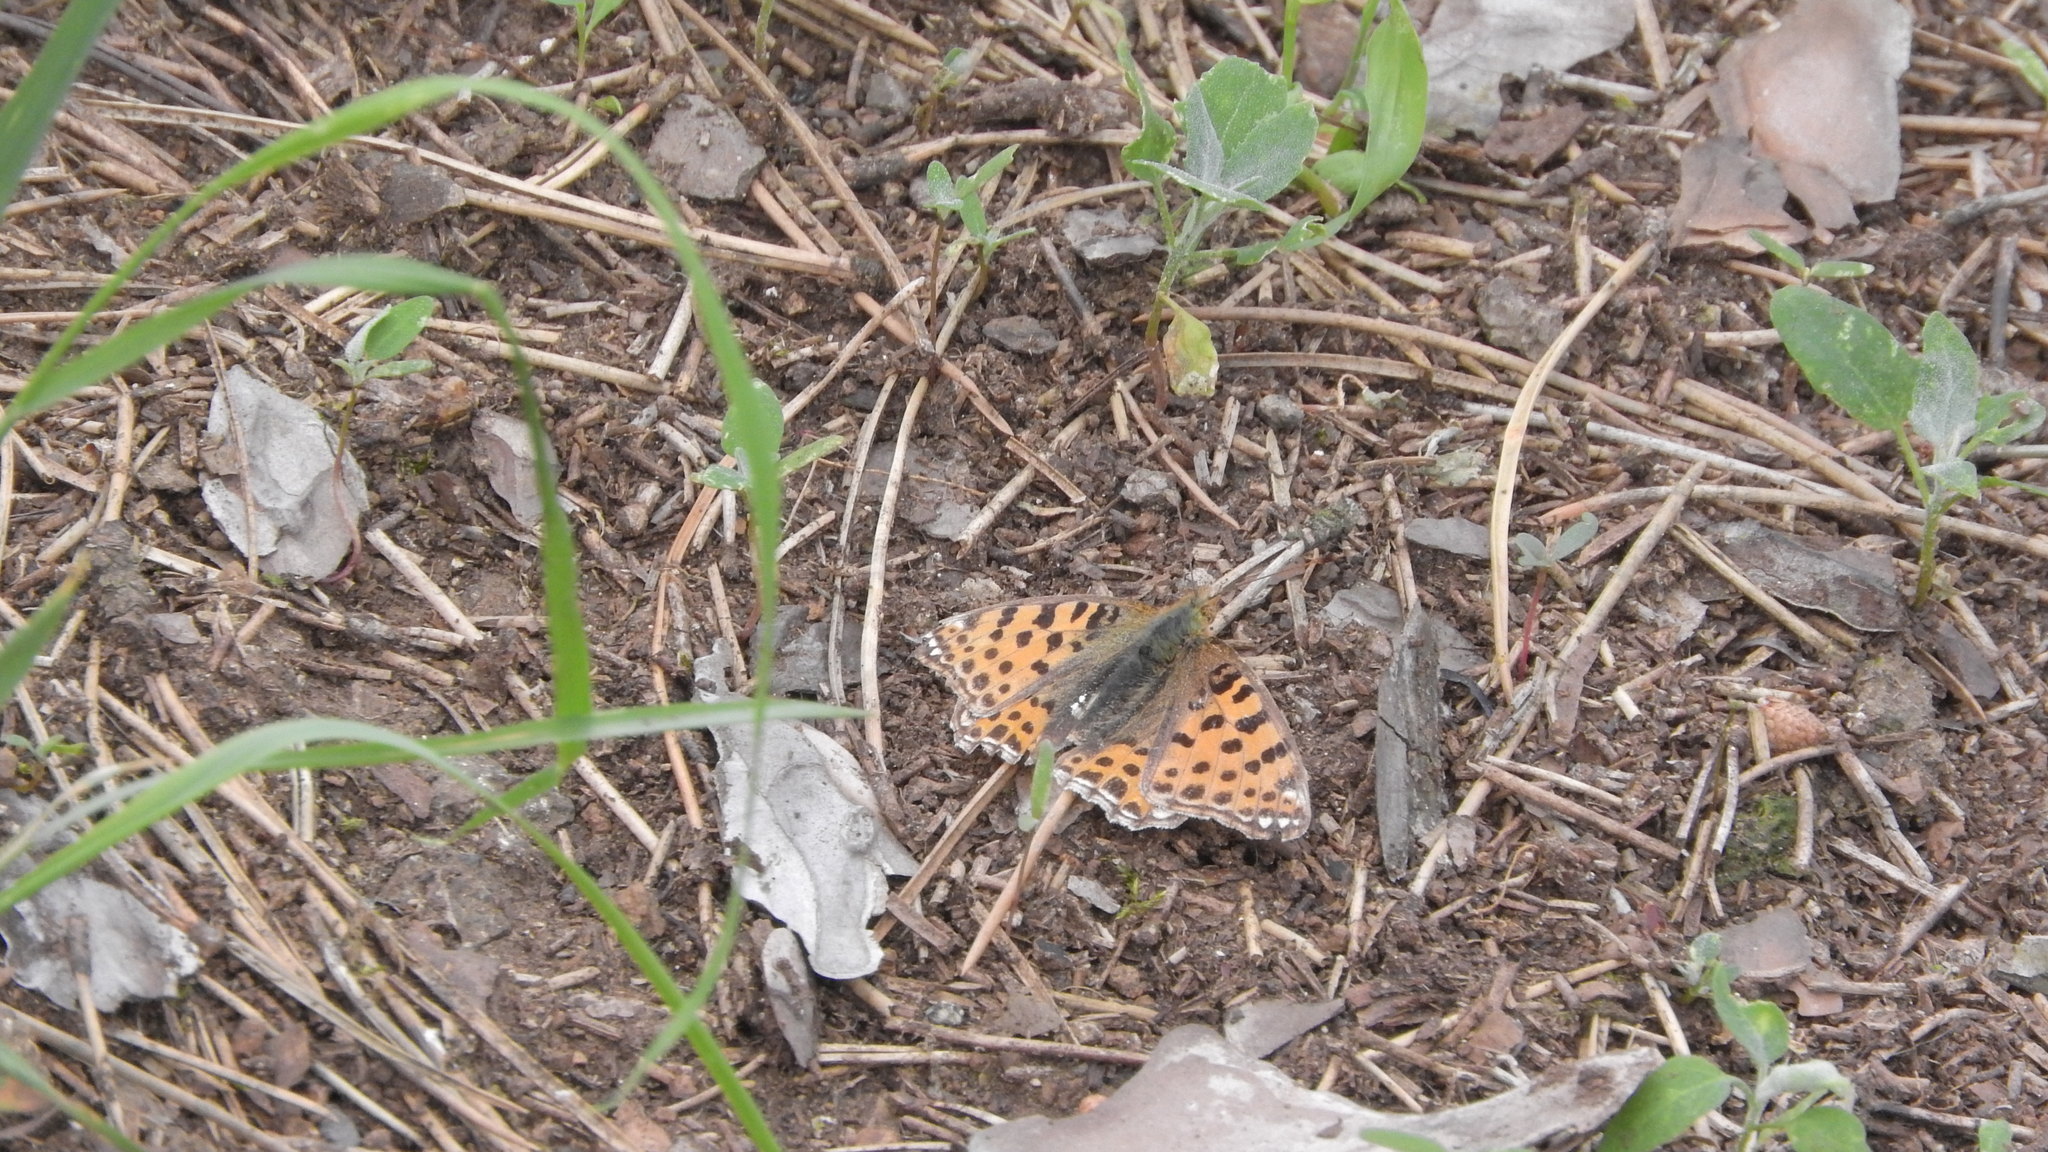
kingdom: Animalia
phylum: Arthropoda
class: Insecta
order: Lepidoptera
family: Nymphalidae
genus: Issoria
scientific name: Issoria lathonia
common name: Queen of spain fritillary
